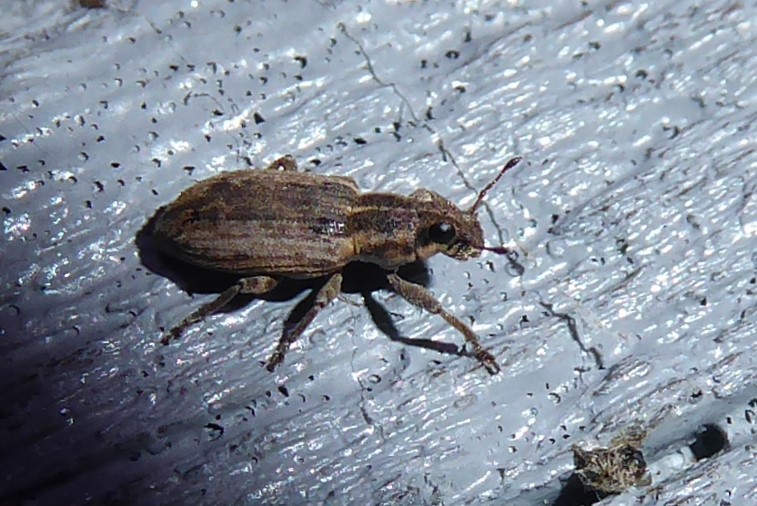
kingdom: Animalia
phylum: Arthropoda
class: Insecta
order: Coleoptera
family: Curculionidae
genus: Sitona
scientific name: Sitona discoideus
